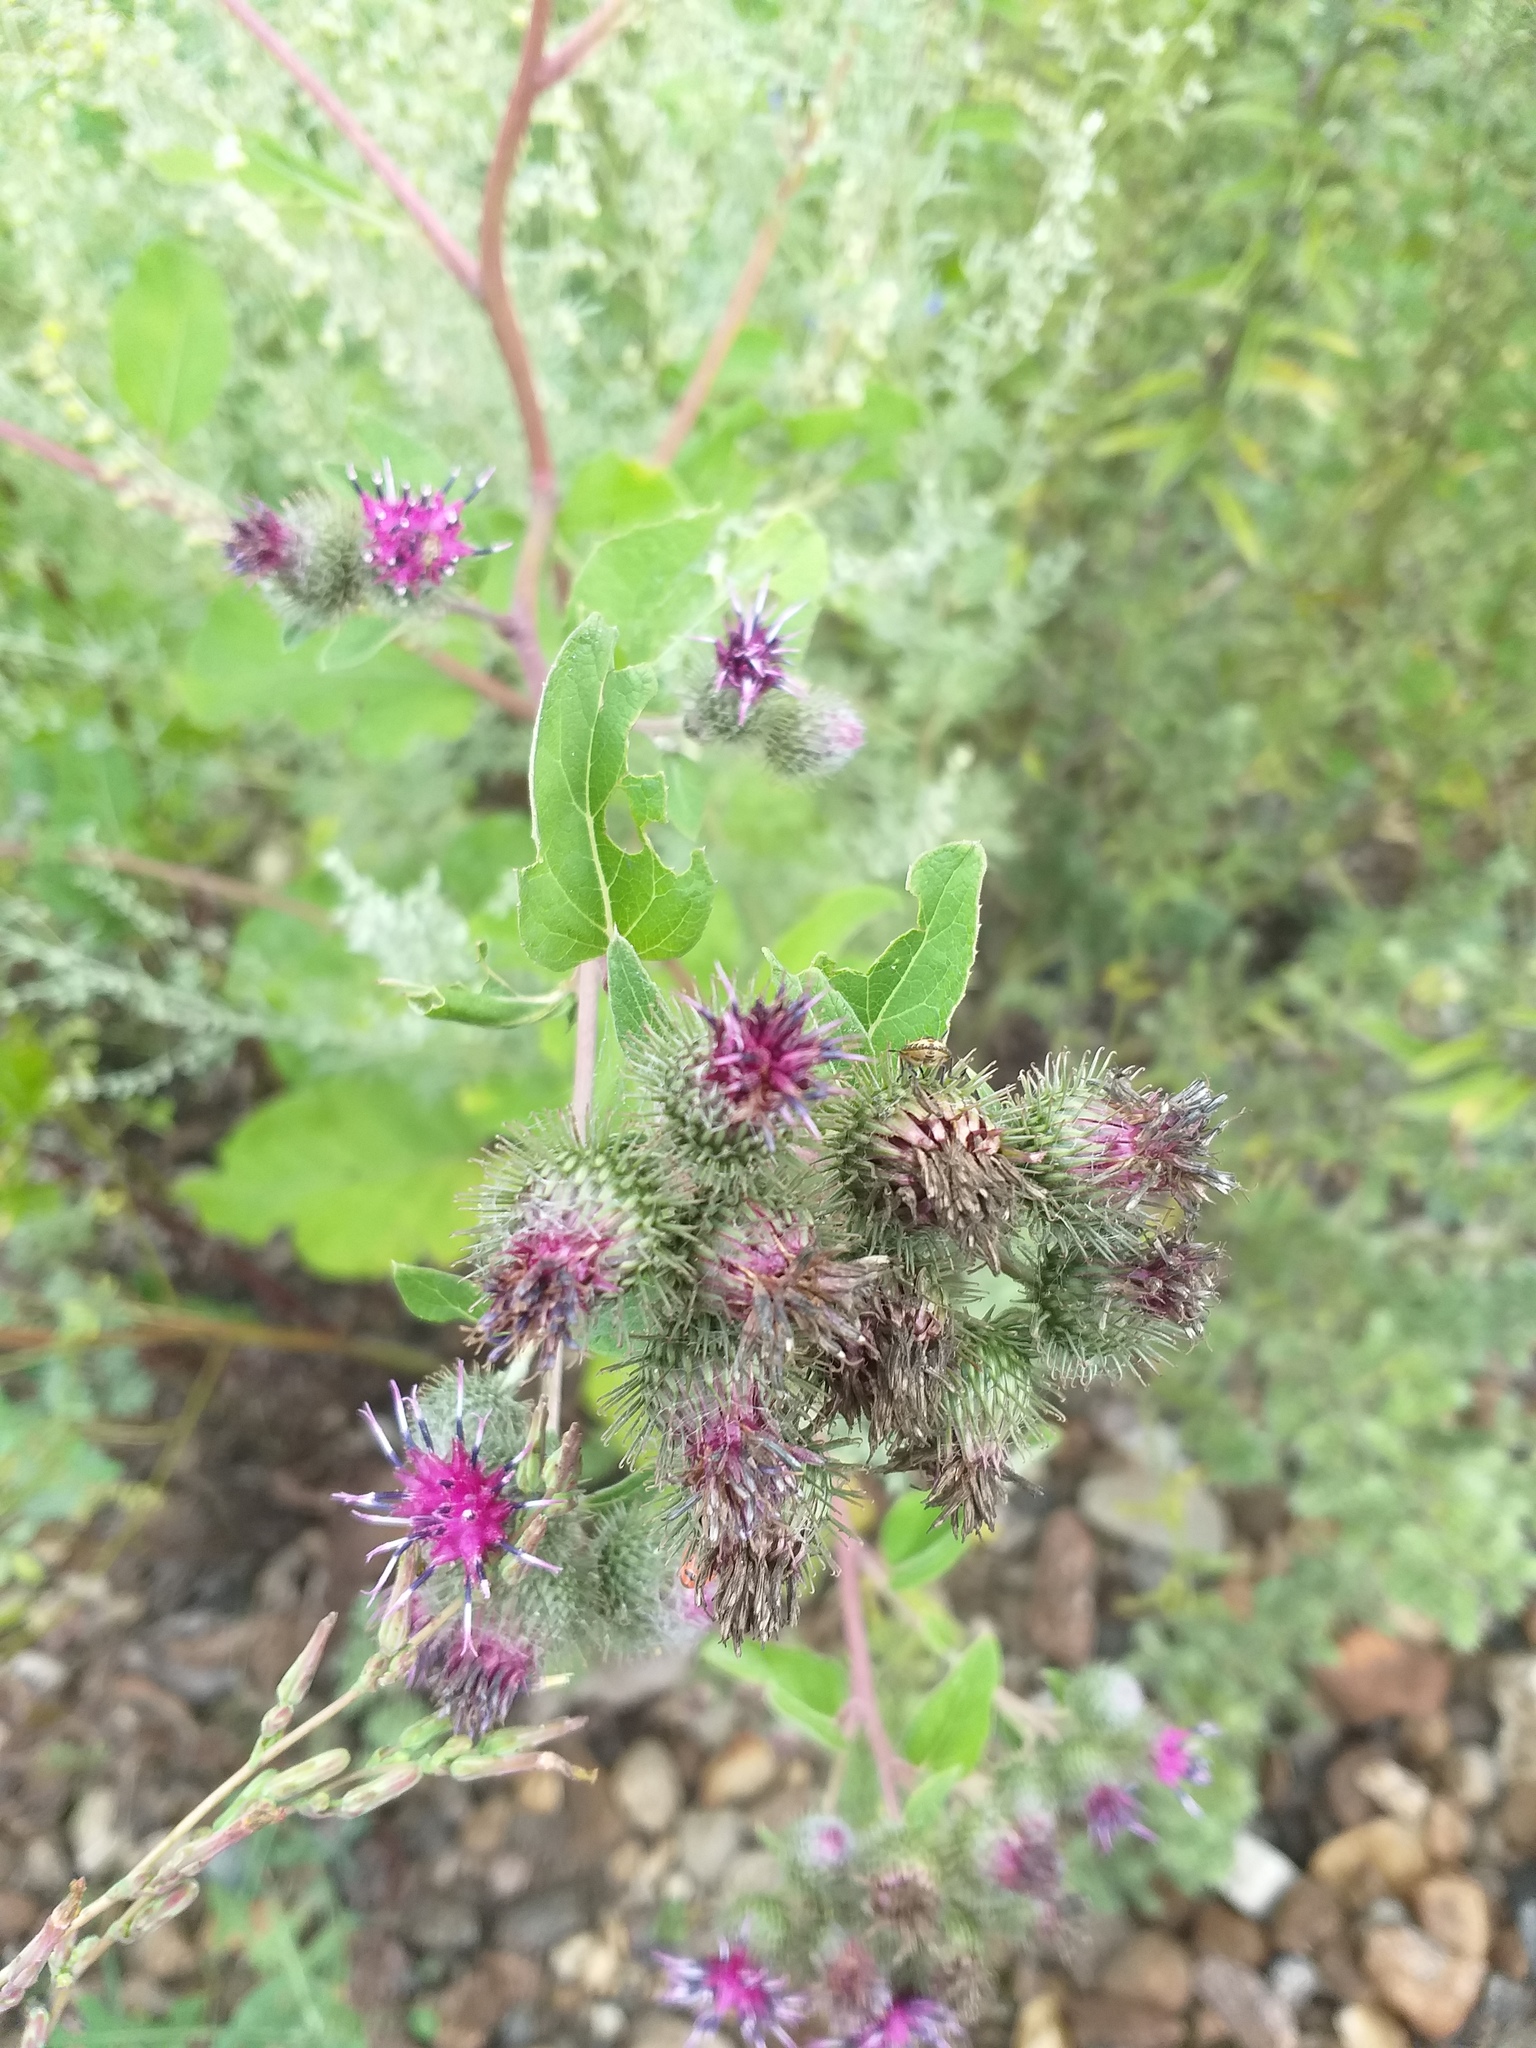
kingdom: Plantae
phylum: Tracheophyta
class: Magnoliopsida
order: Asterales
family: Asteraceae
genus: Arctium
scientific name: Arctium tomentosum
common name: Woolly burdock
